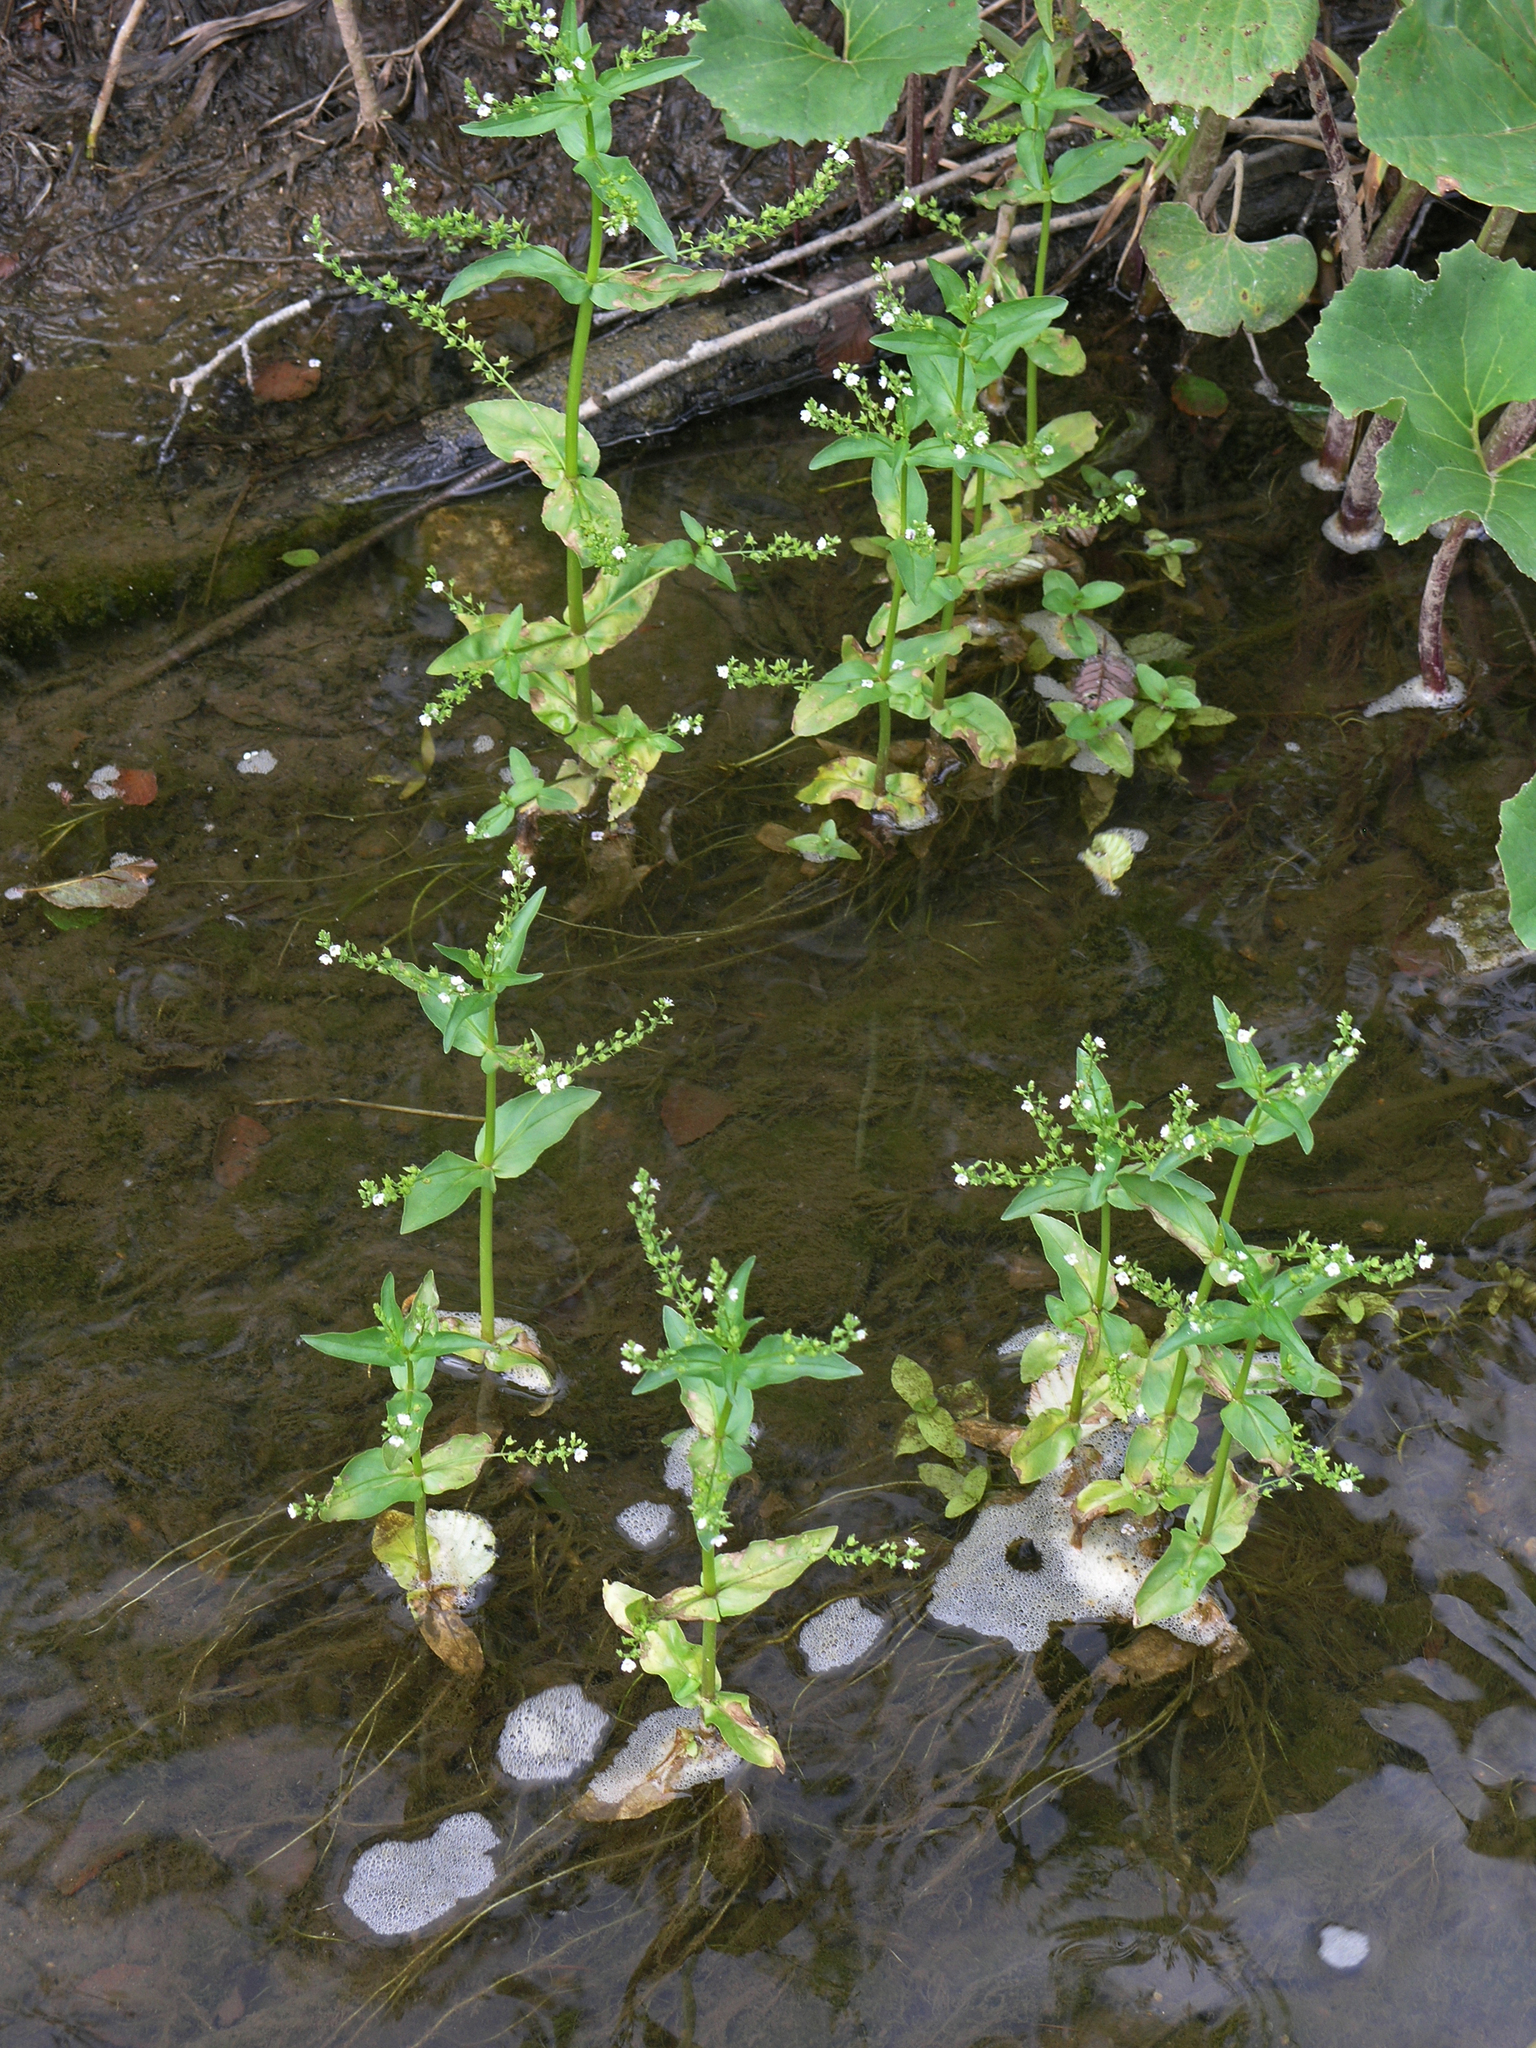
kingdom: Plantae
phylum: Tracheophyta
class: Magnoliopsida
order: Lamiales
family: Plantaginaceae
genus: Veronica
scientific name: Veronica anagallis-aquatica
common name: Water speedwell
